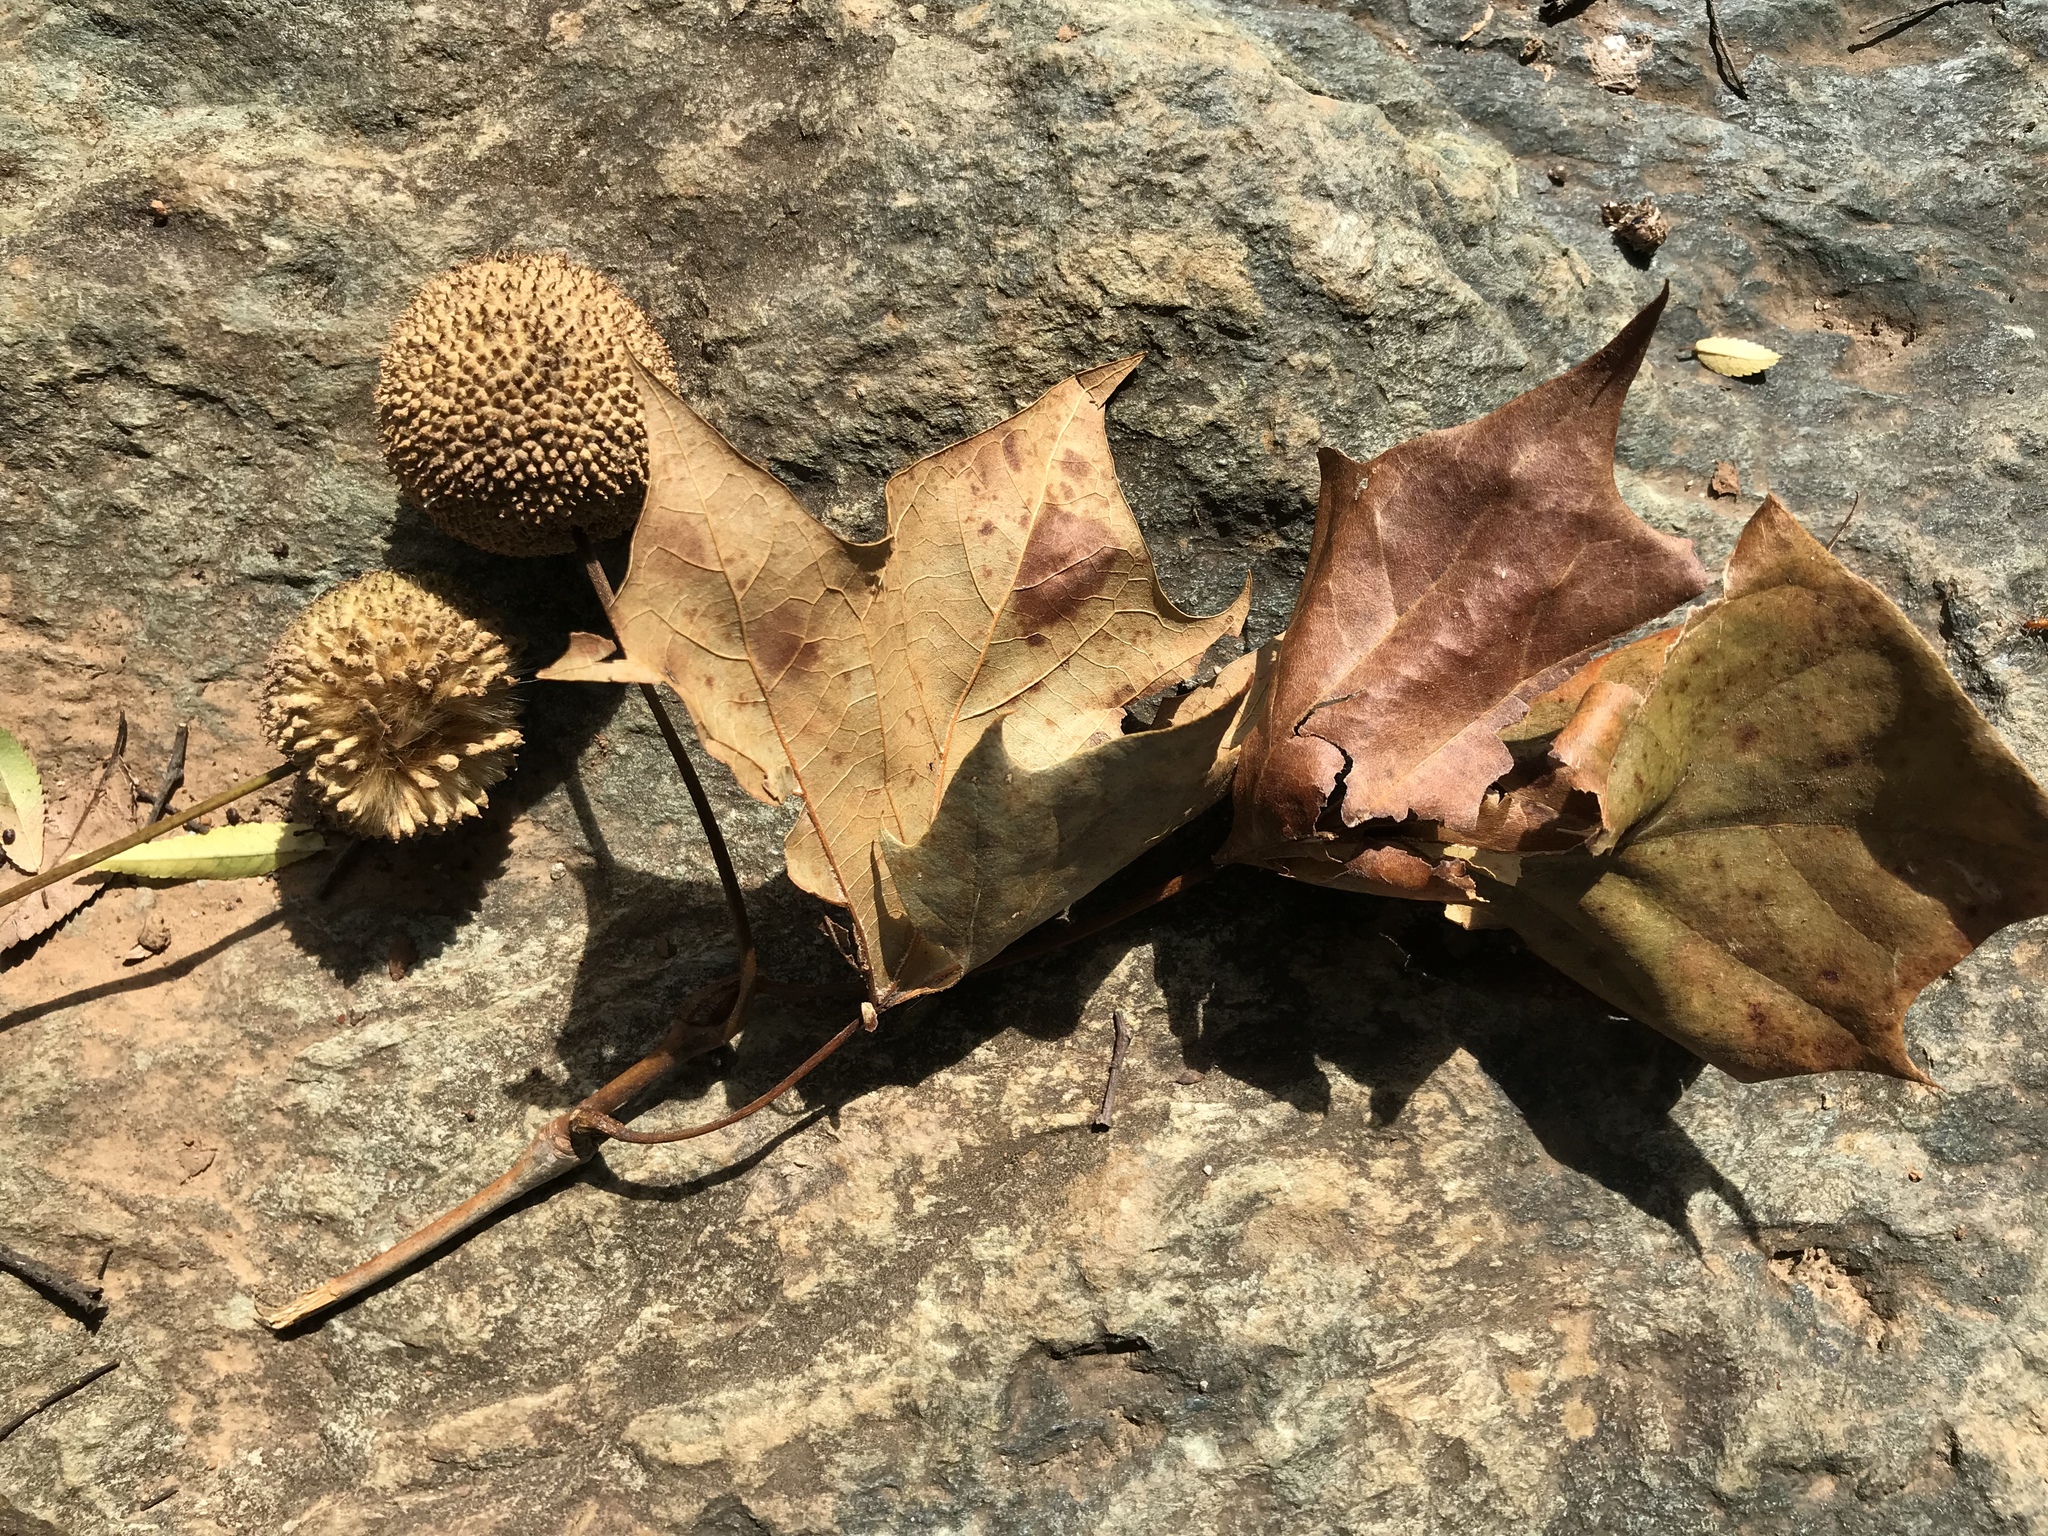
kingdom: Plantae
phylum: Tracheophyta
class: Magnoliopsida
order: Proteales
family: Platanaceae
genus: Platanus
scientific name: Platanus occidentalis
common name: American sycamore
